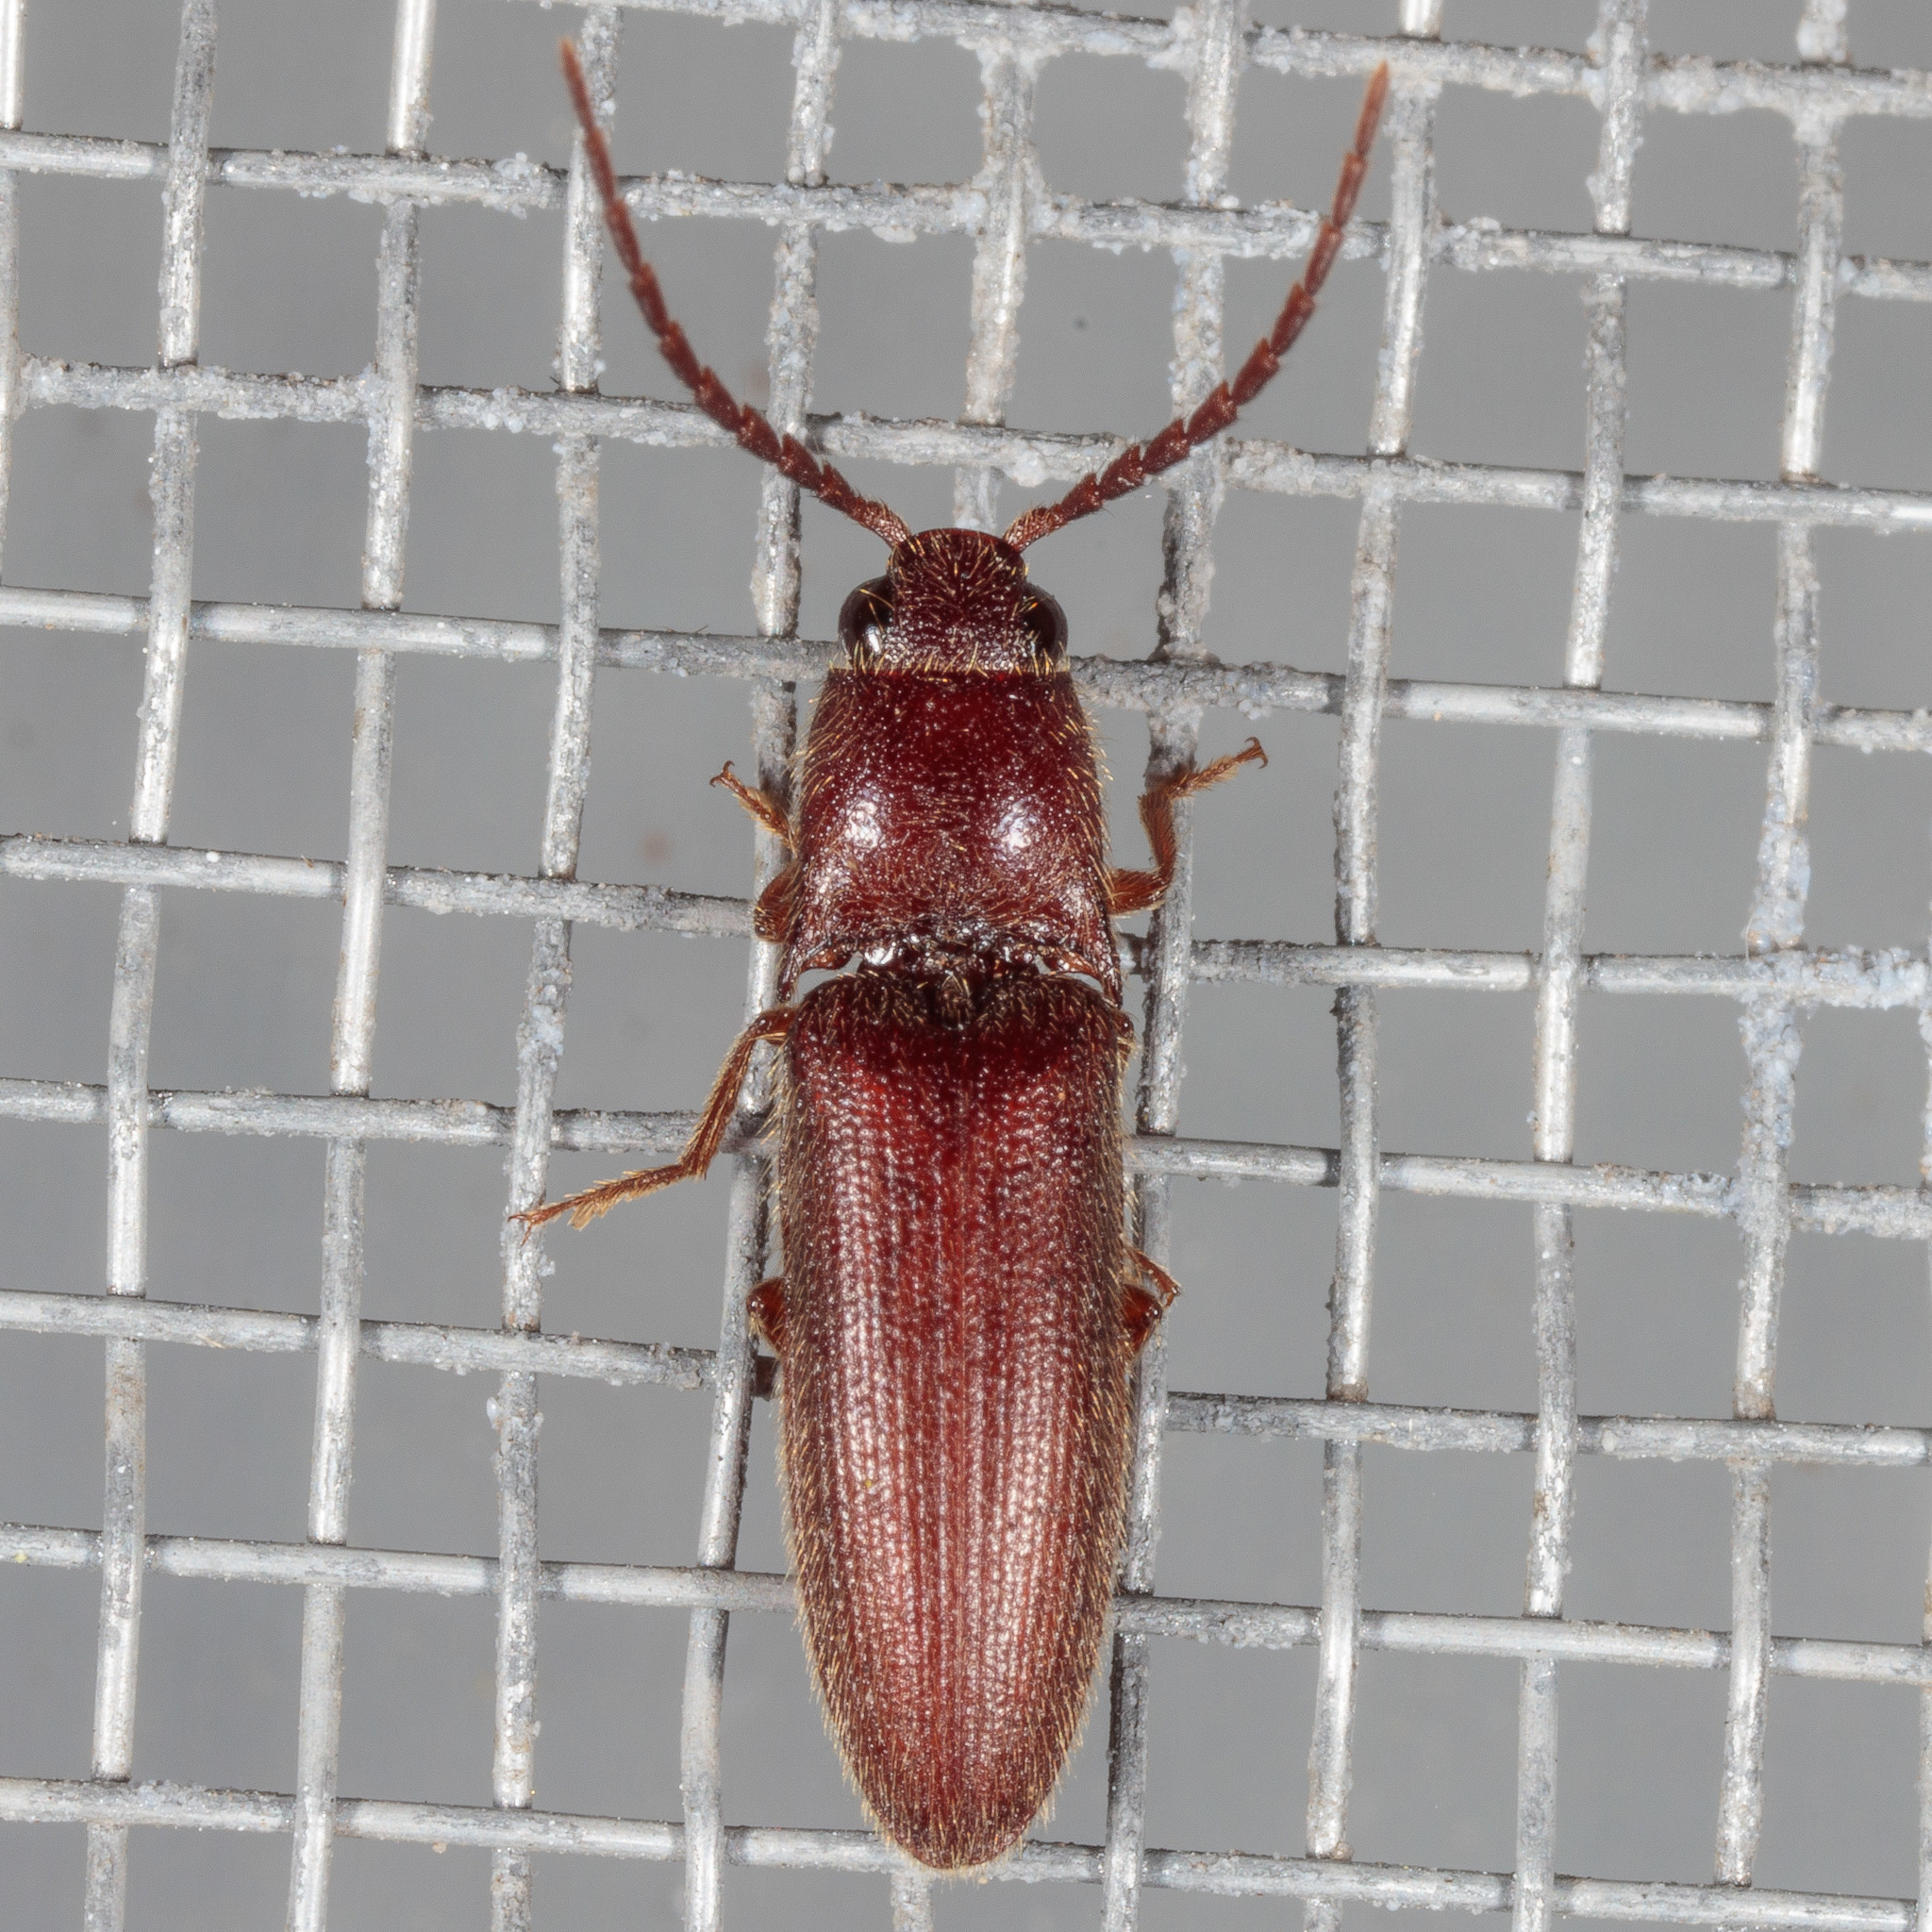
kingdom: Animalia
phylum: Arthropoda
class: Insecta
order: Coleoptera
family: Elateridae
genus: Dipropus
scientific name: Dipropus
